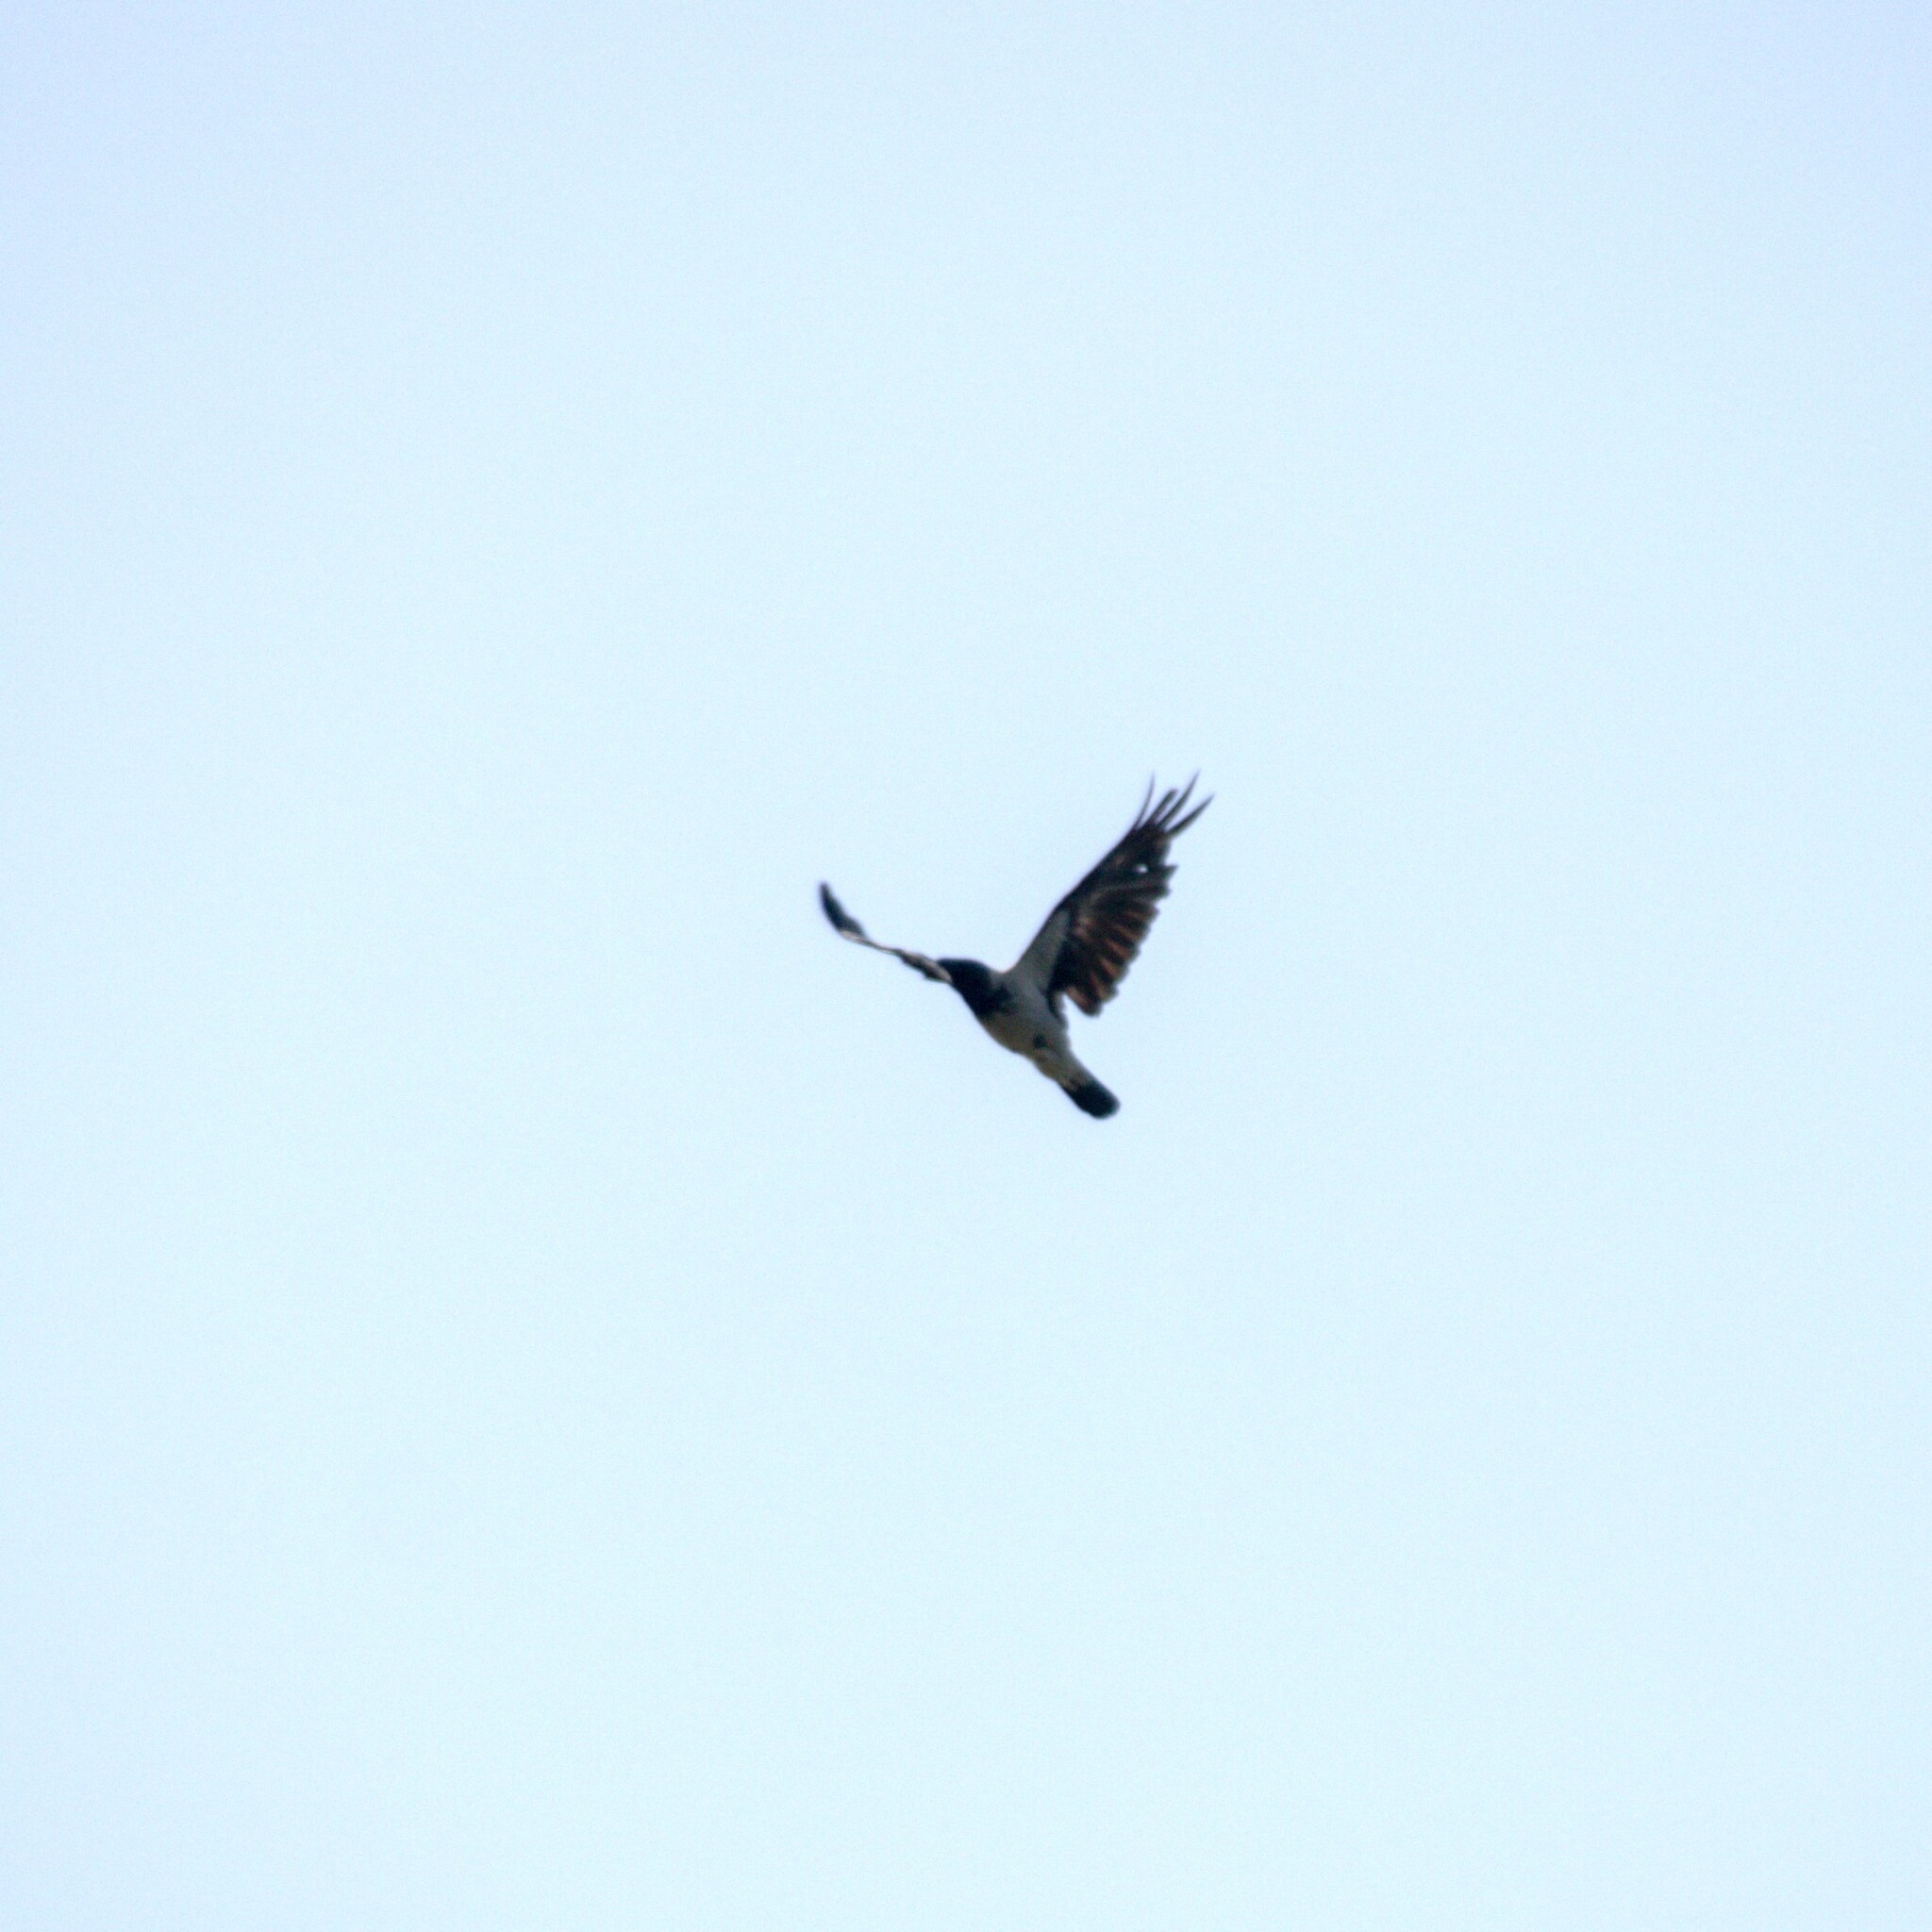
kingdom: Animalia
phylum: Chordata
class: Aves
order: Passeriformes
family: Corvidae
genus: Corvus
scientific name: Corvus cornix
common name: Hooded crow
